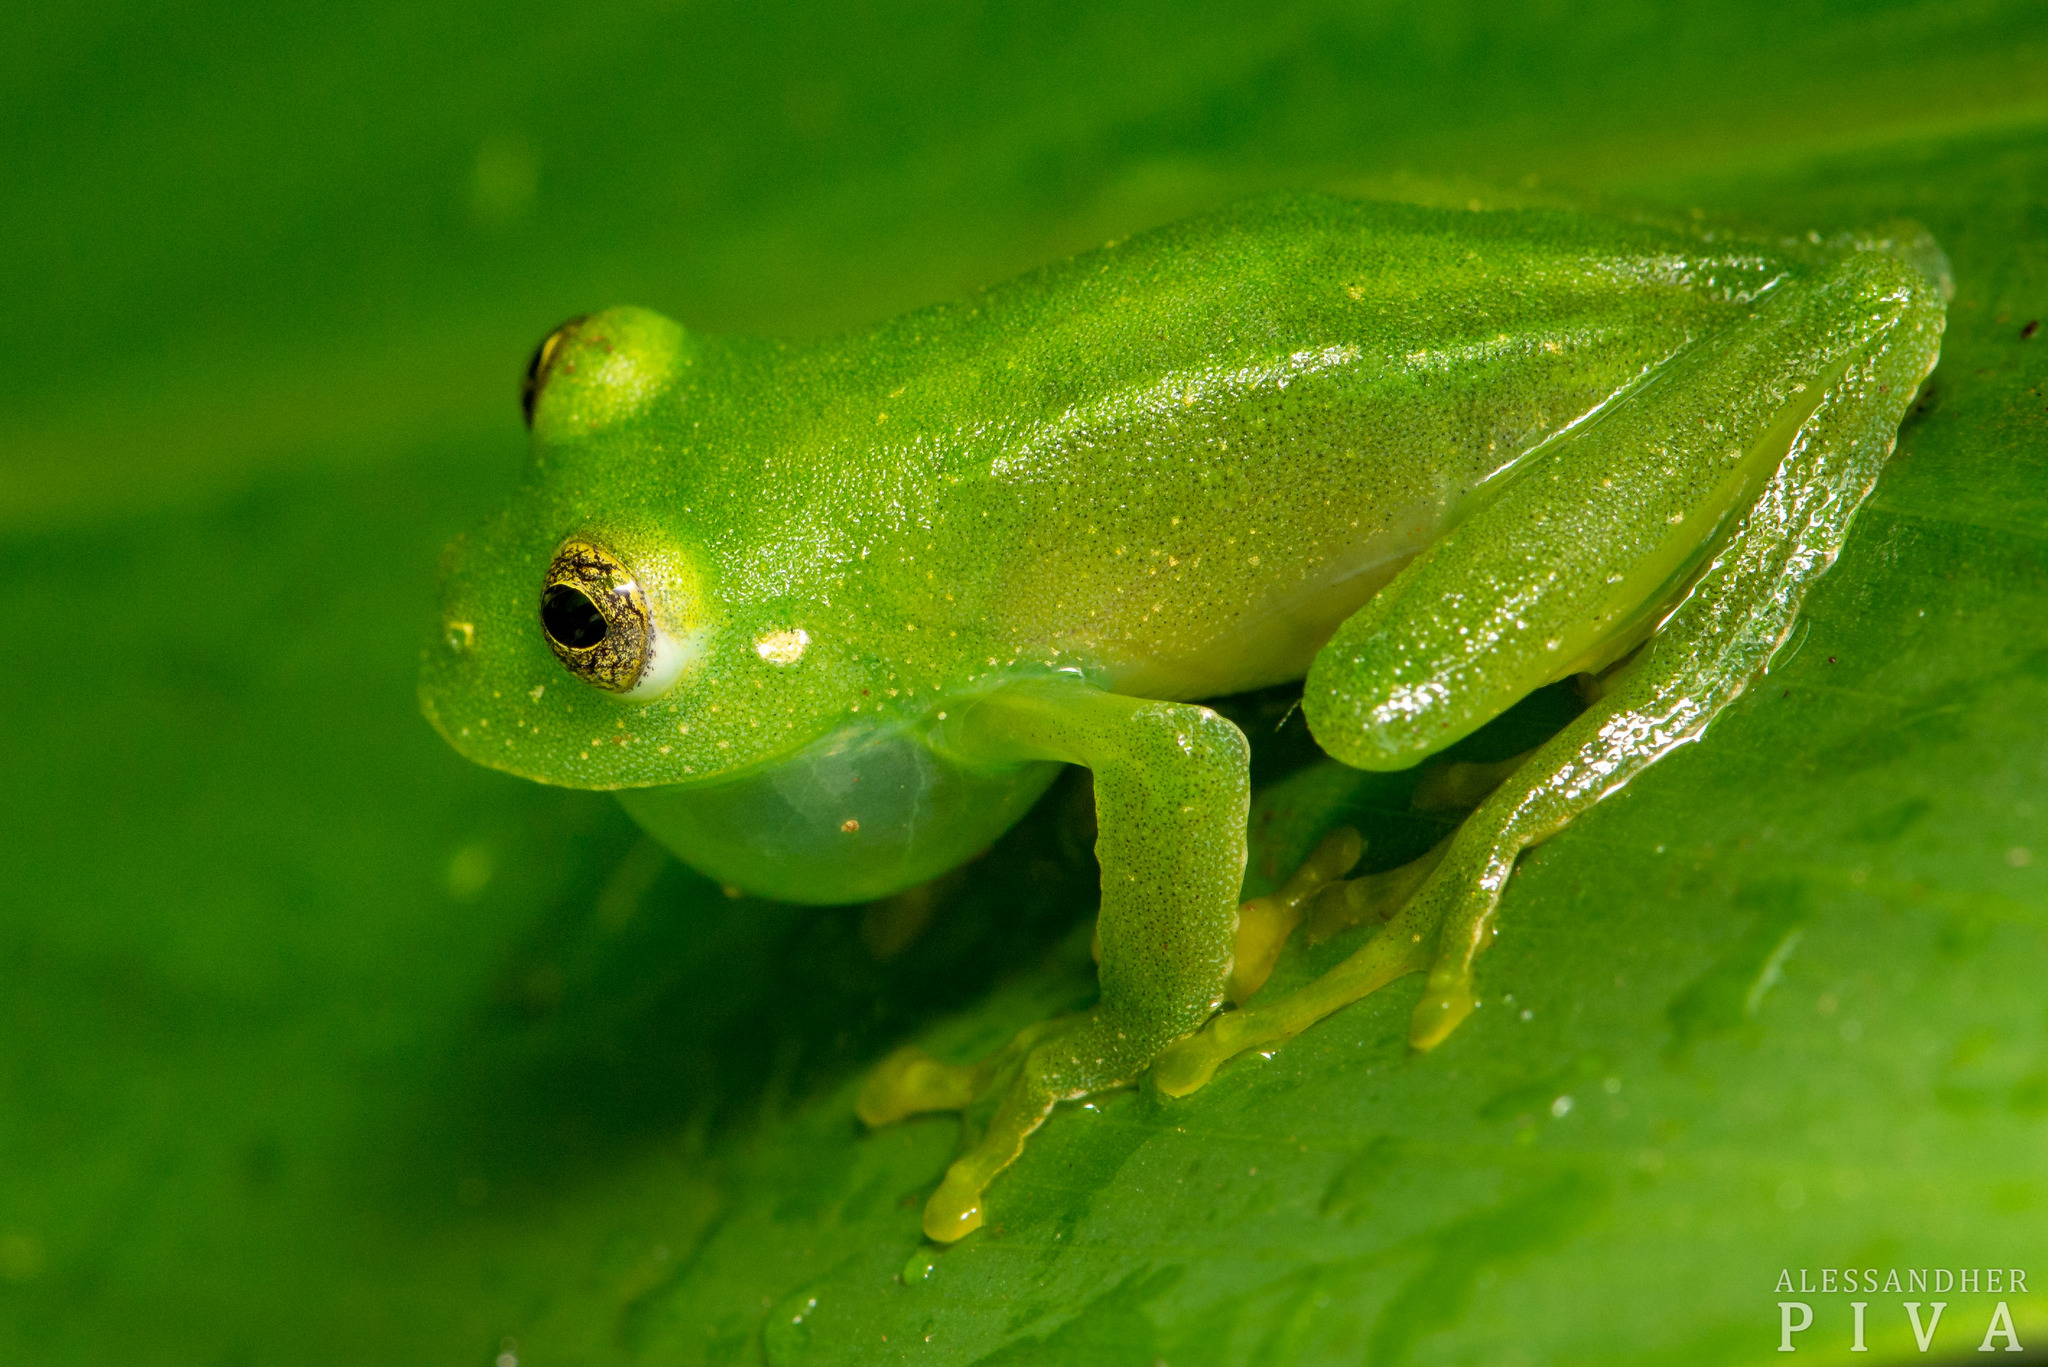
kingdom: Animalia
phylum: Chordata
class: Amphibia
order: Anura
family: Centrolenidae
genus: Vitreorana
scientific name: Vitreorana parvula
